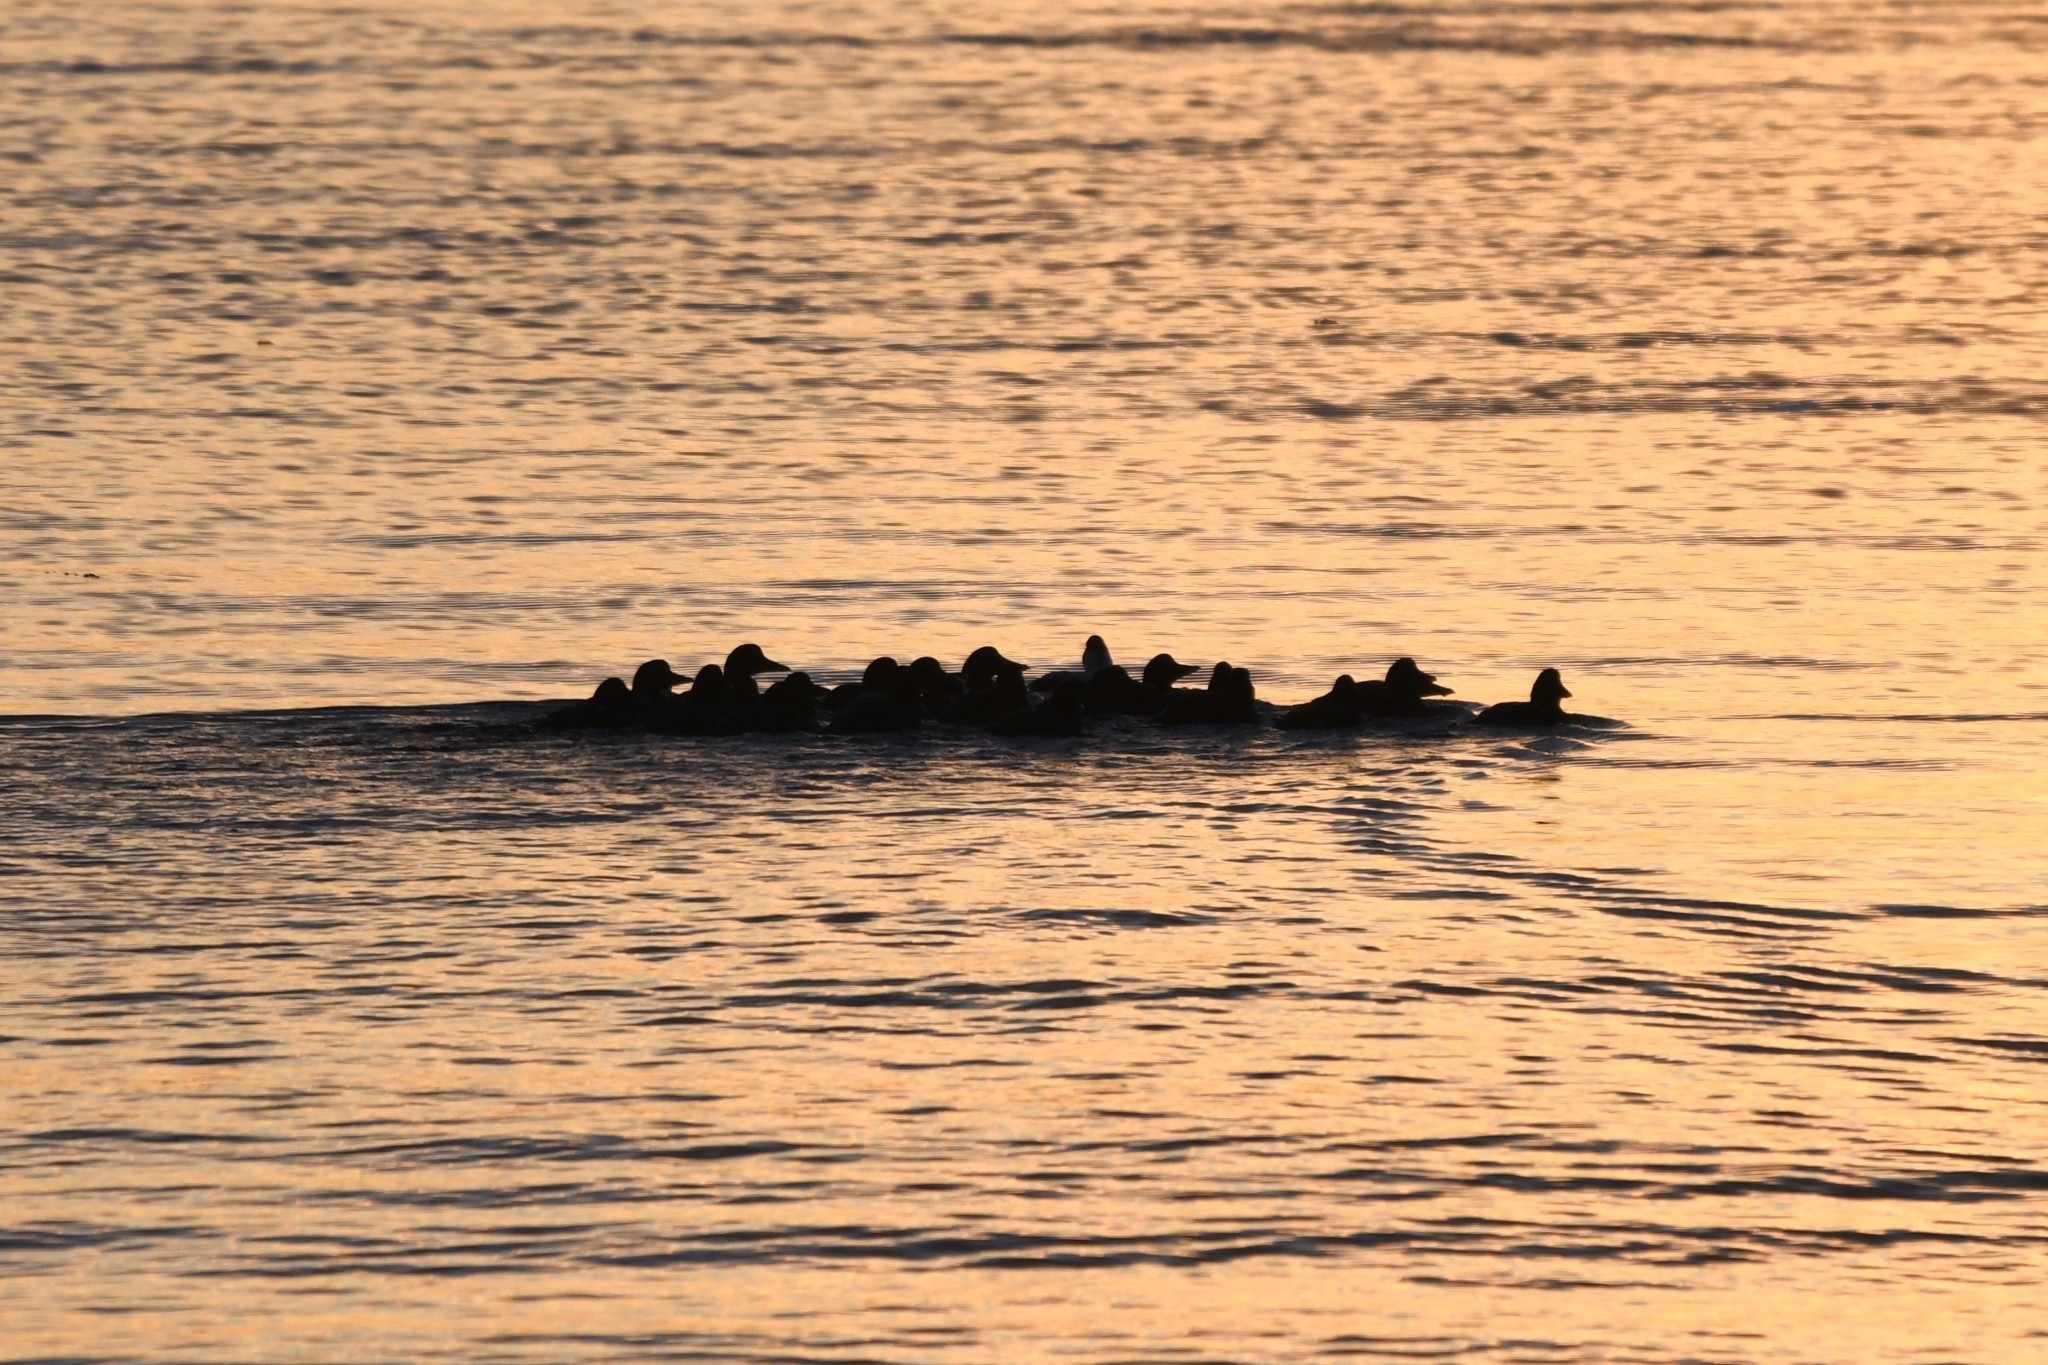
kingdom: Animalia
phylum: Chordata
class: Aves
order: Anseriformes
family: Anatidae
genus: Somateria
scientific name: Somateria mollissima
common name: Common eider
